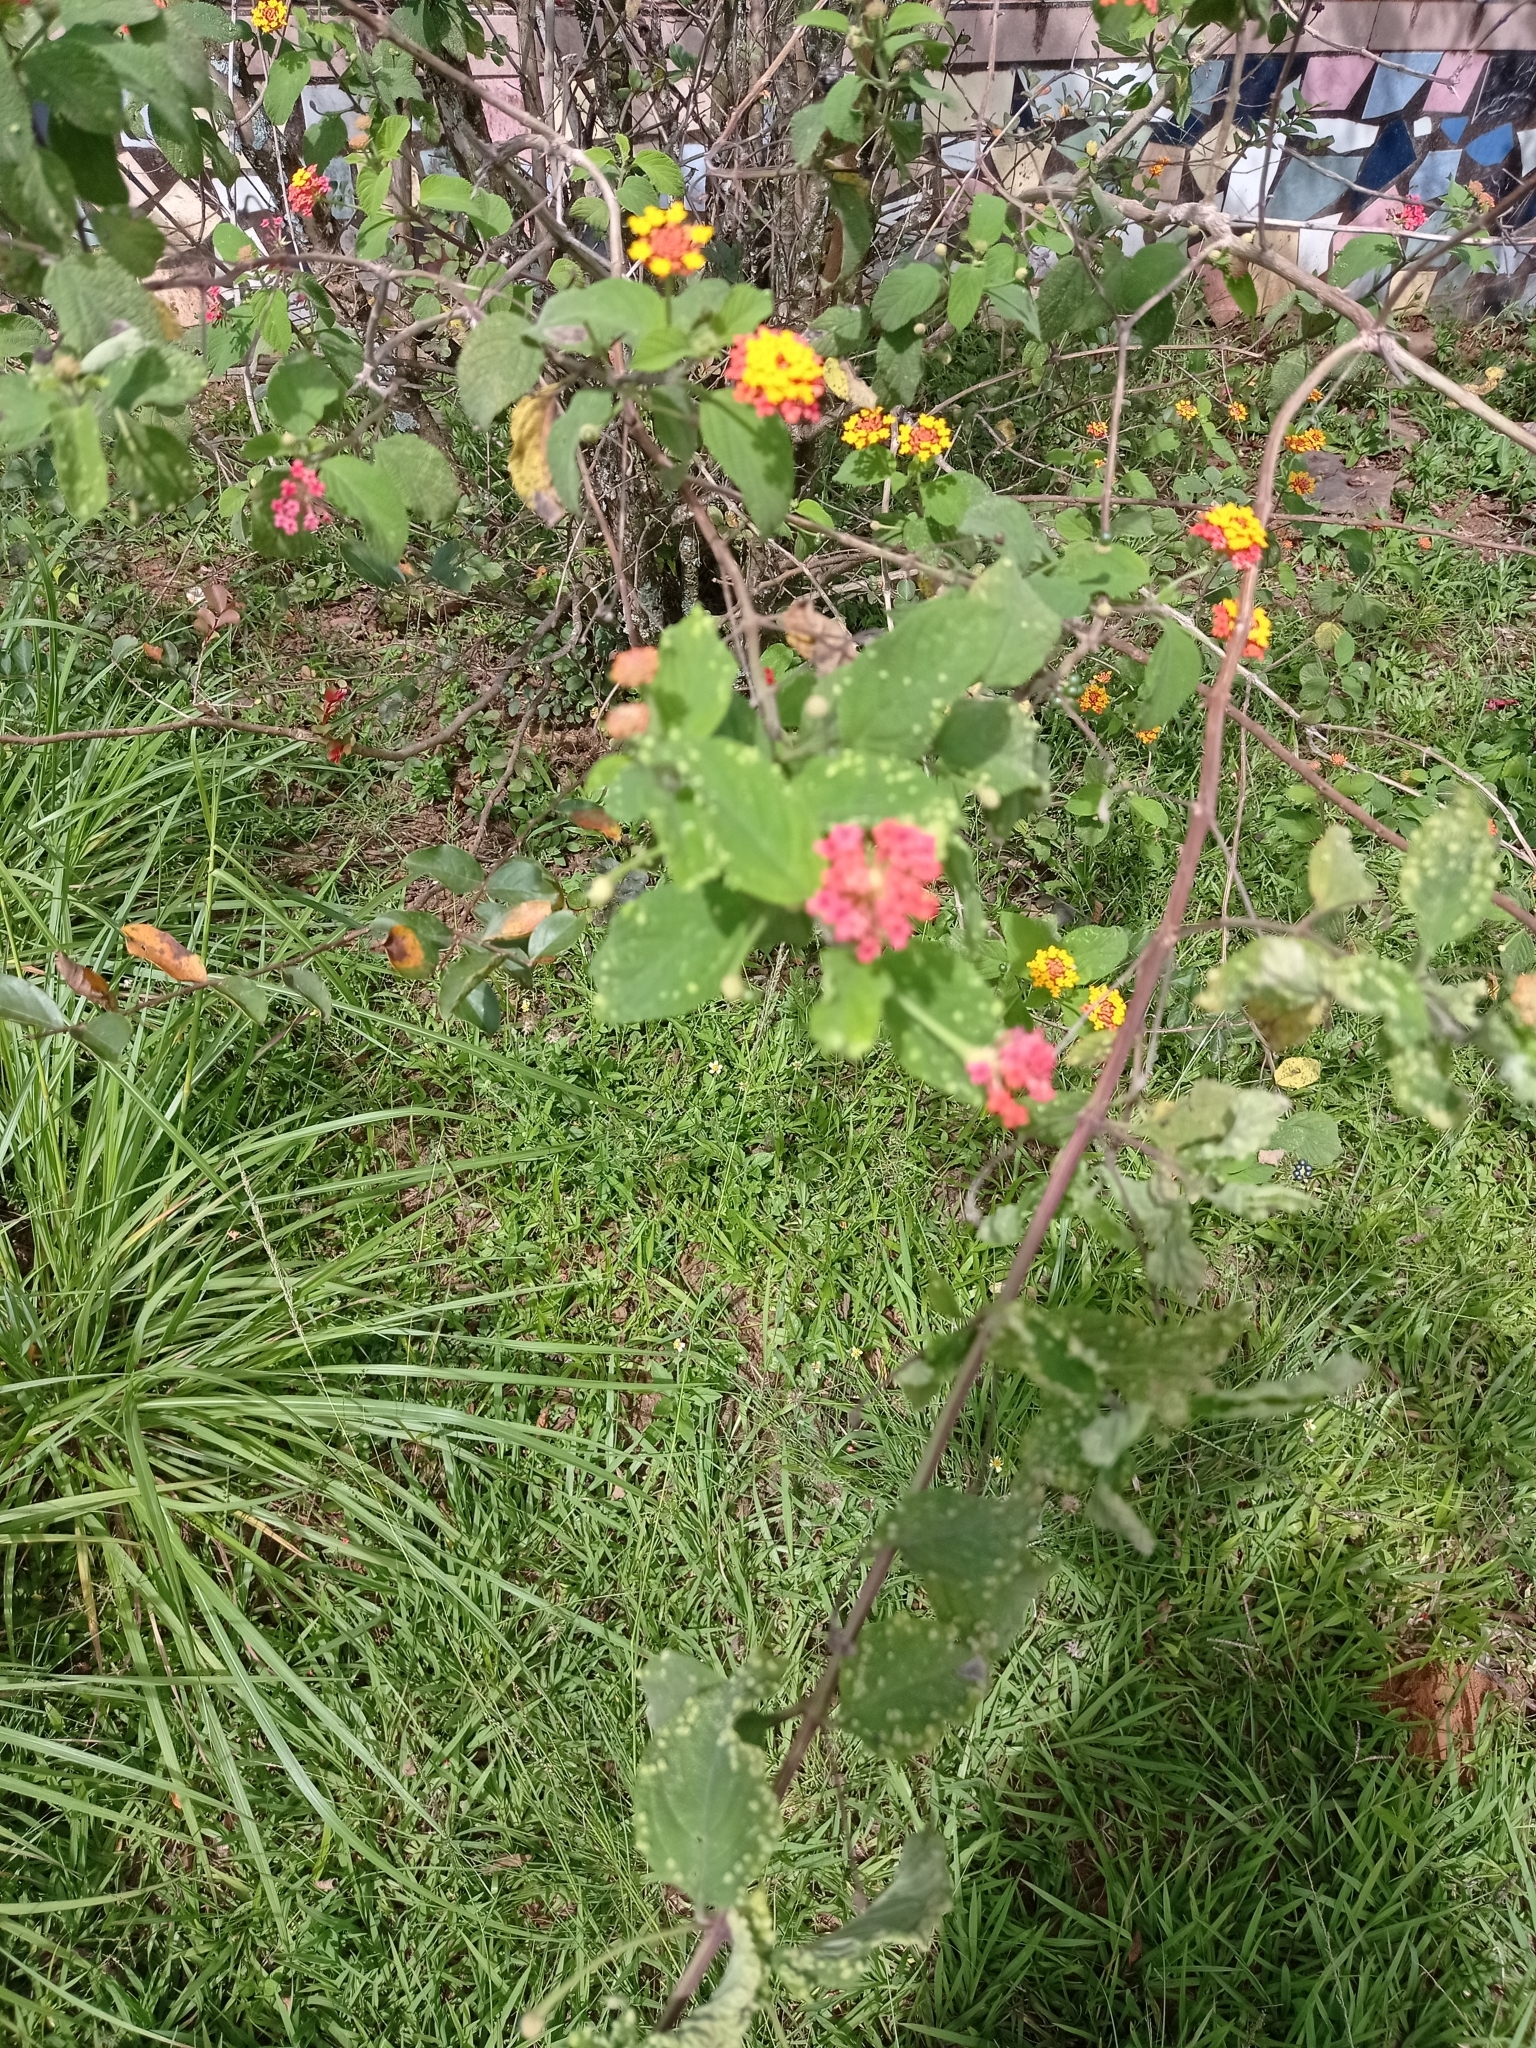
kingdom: Plantae
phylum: Tracheophyta
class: Magnoliopsida
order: Lamiales
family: Verbenaceae
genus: Lantana
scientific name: Lantana camara
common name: Lantana
